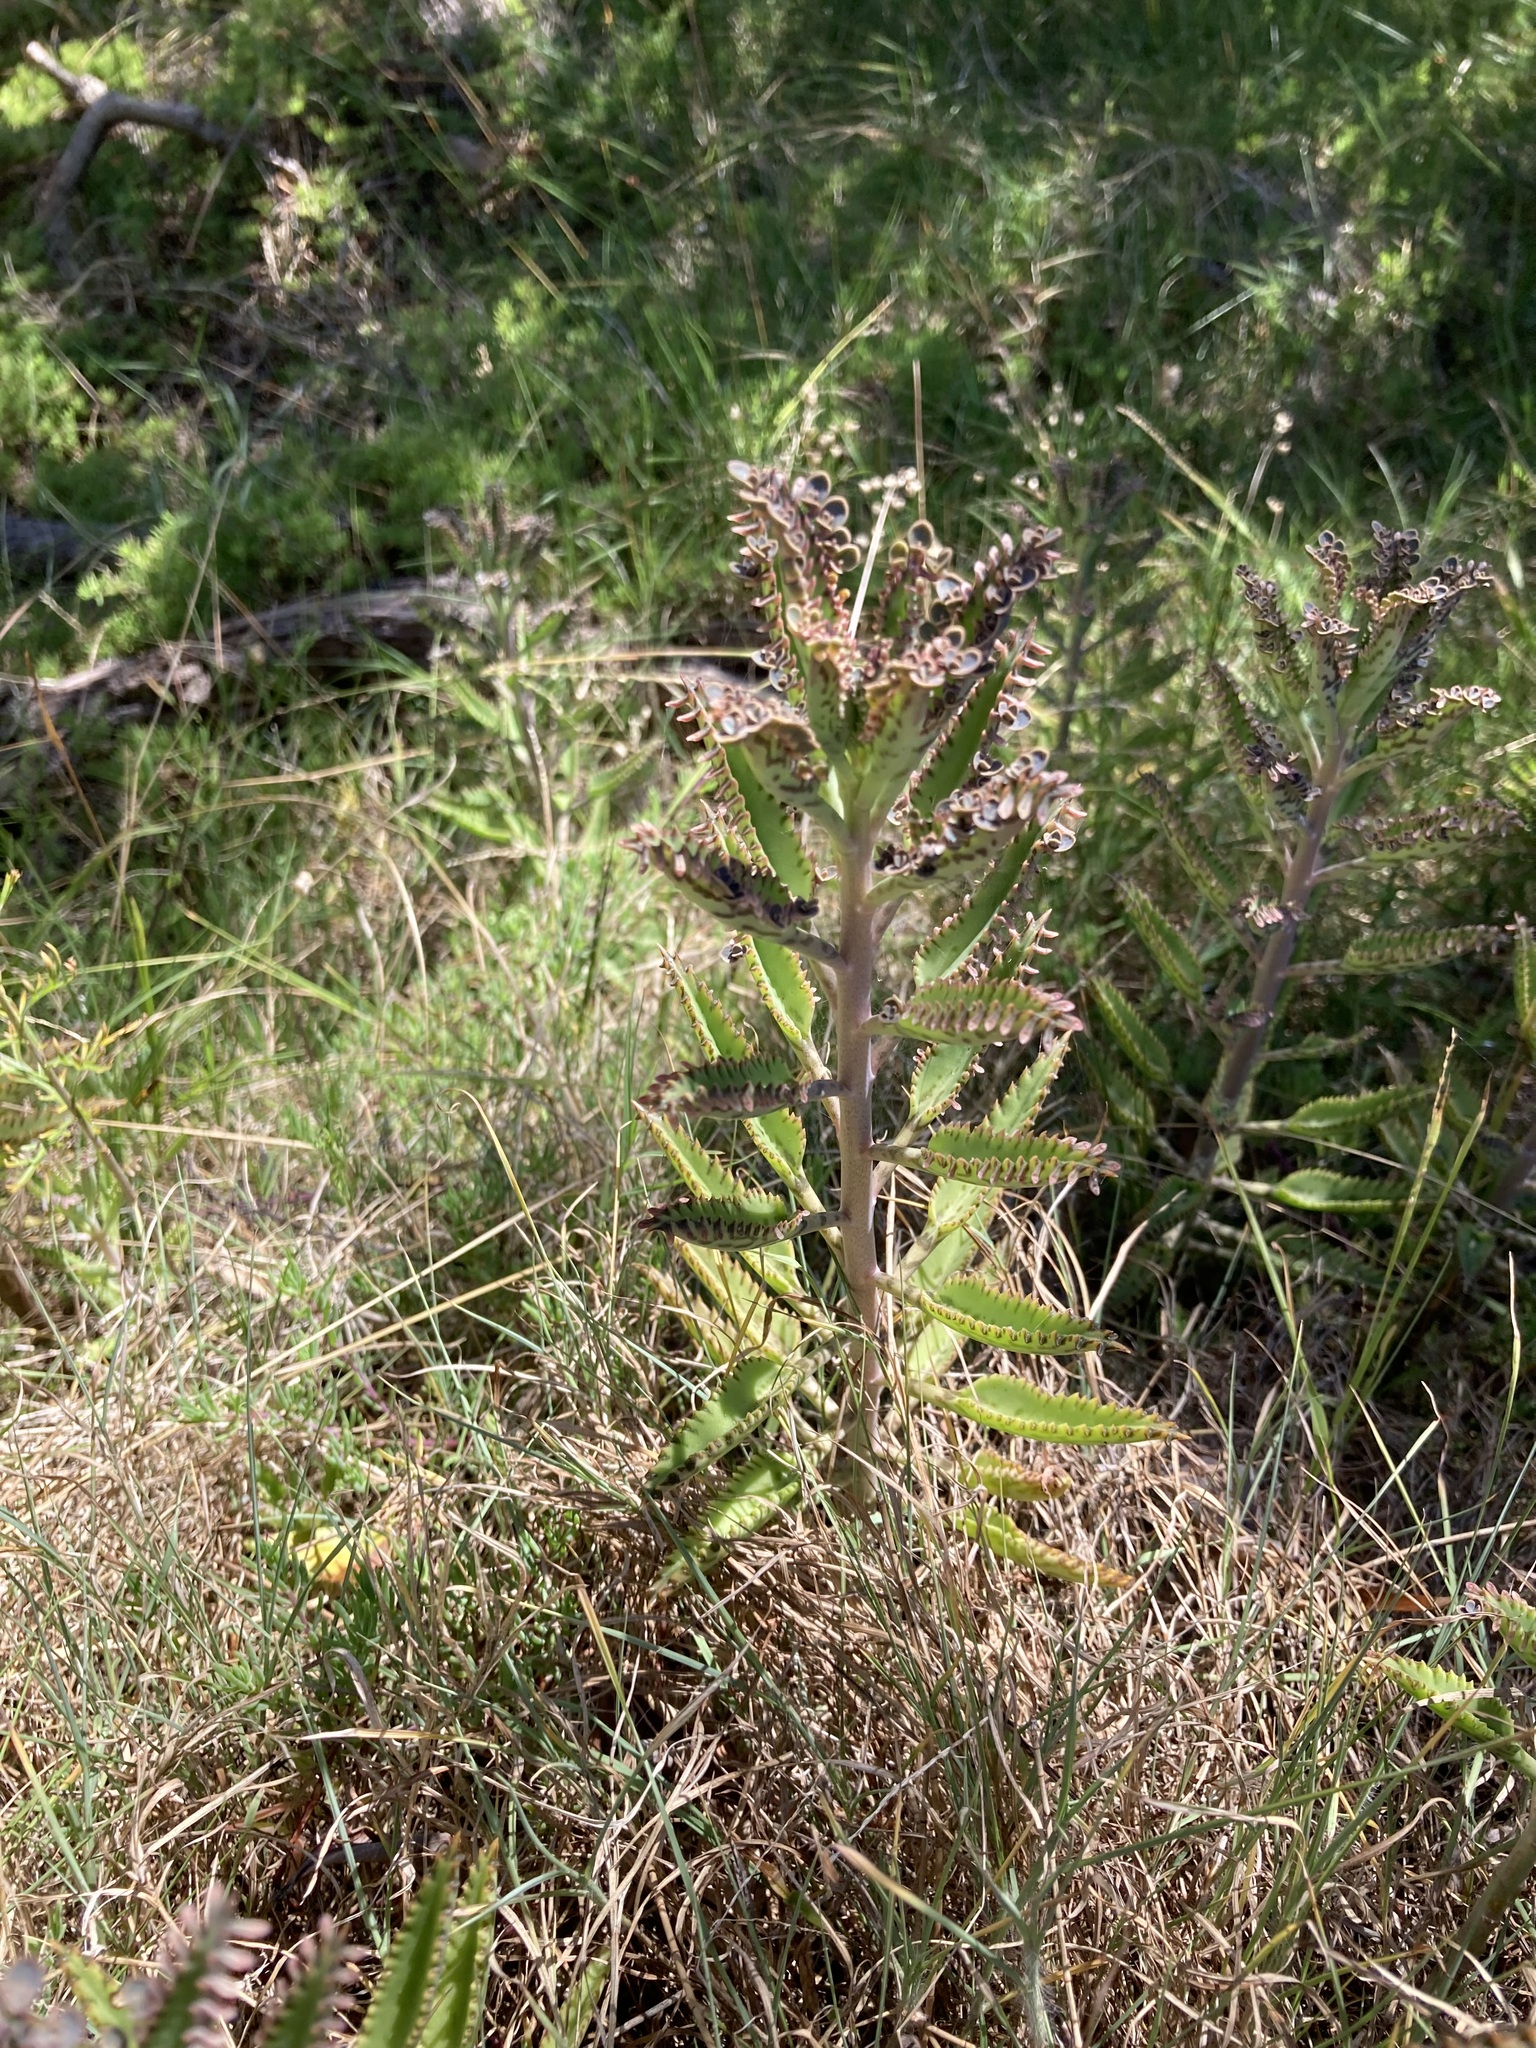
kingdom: Plantae
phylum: Tracheophyta
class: Magnoliopsida
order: Saxifragales
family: Crassulaceae
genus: Kalanchoe
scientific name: Kalanchoe houghtonii
